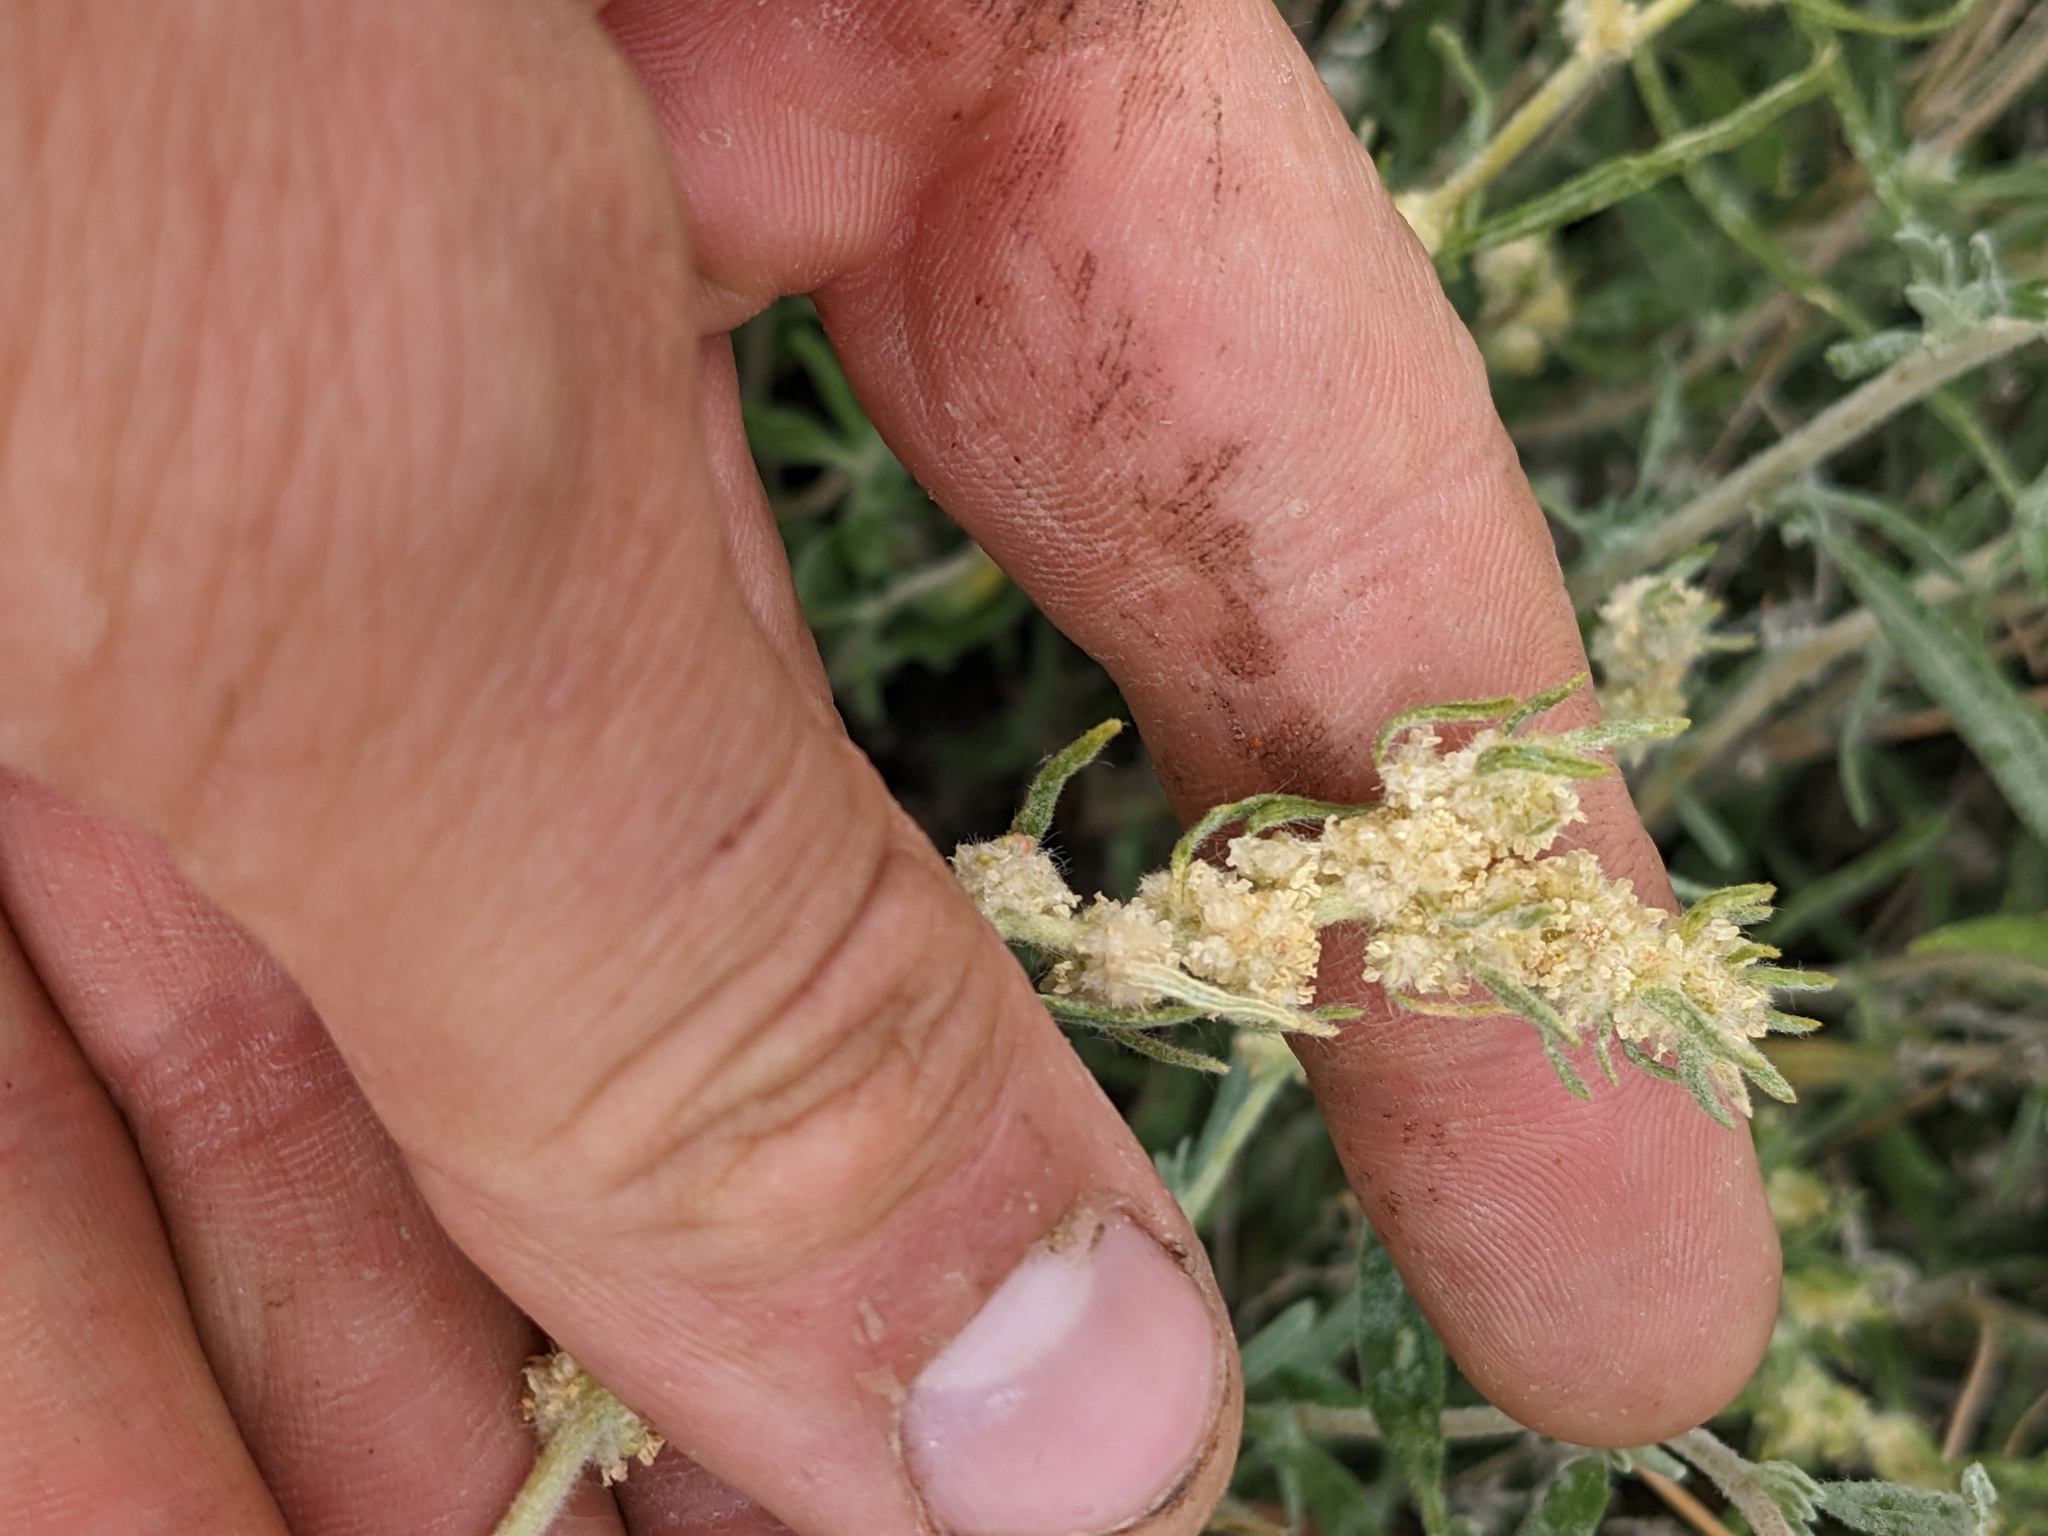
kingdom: Plantae
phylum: Tracheophyta
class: Magnoliopsida
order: Caryophyllales
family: Amaranthaceae
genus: Krascheninnikovia
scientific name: Krascheninnikovia lanata
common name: Winterfat
